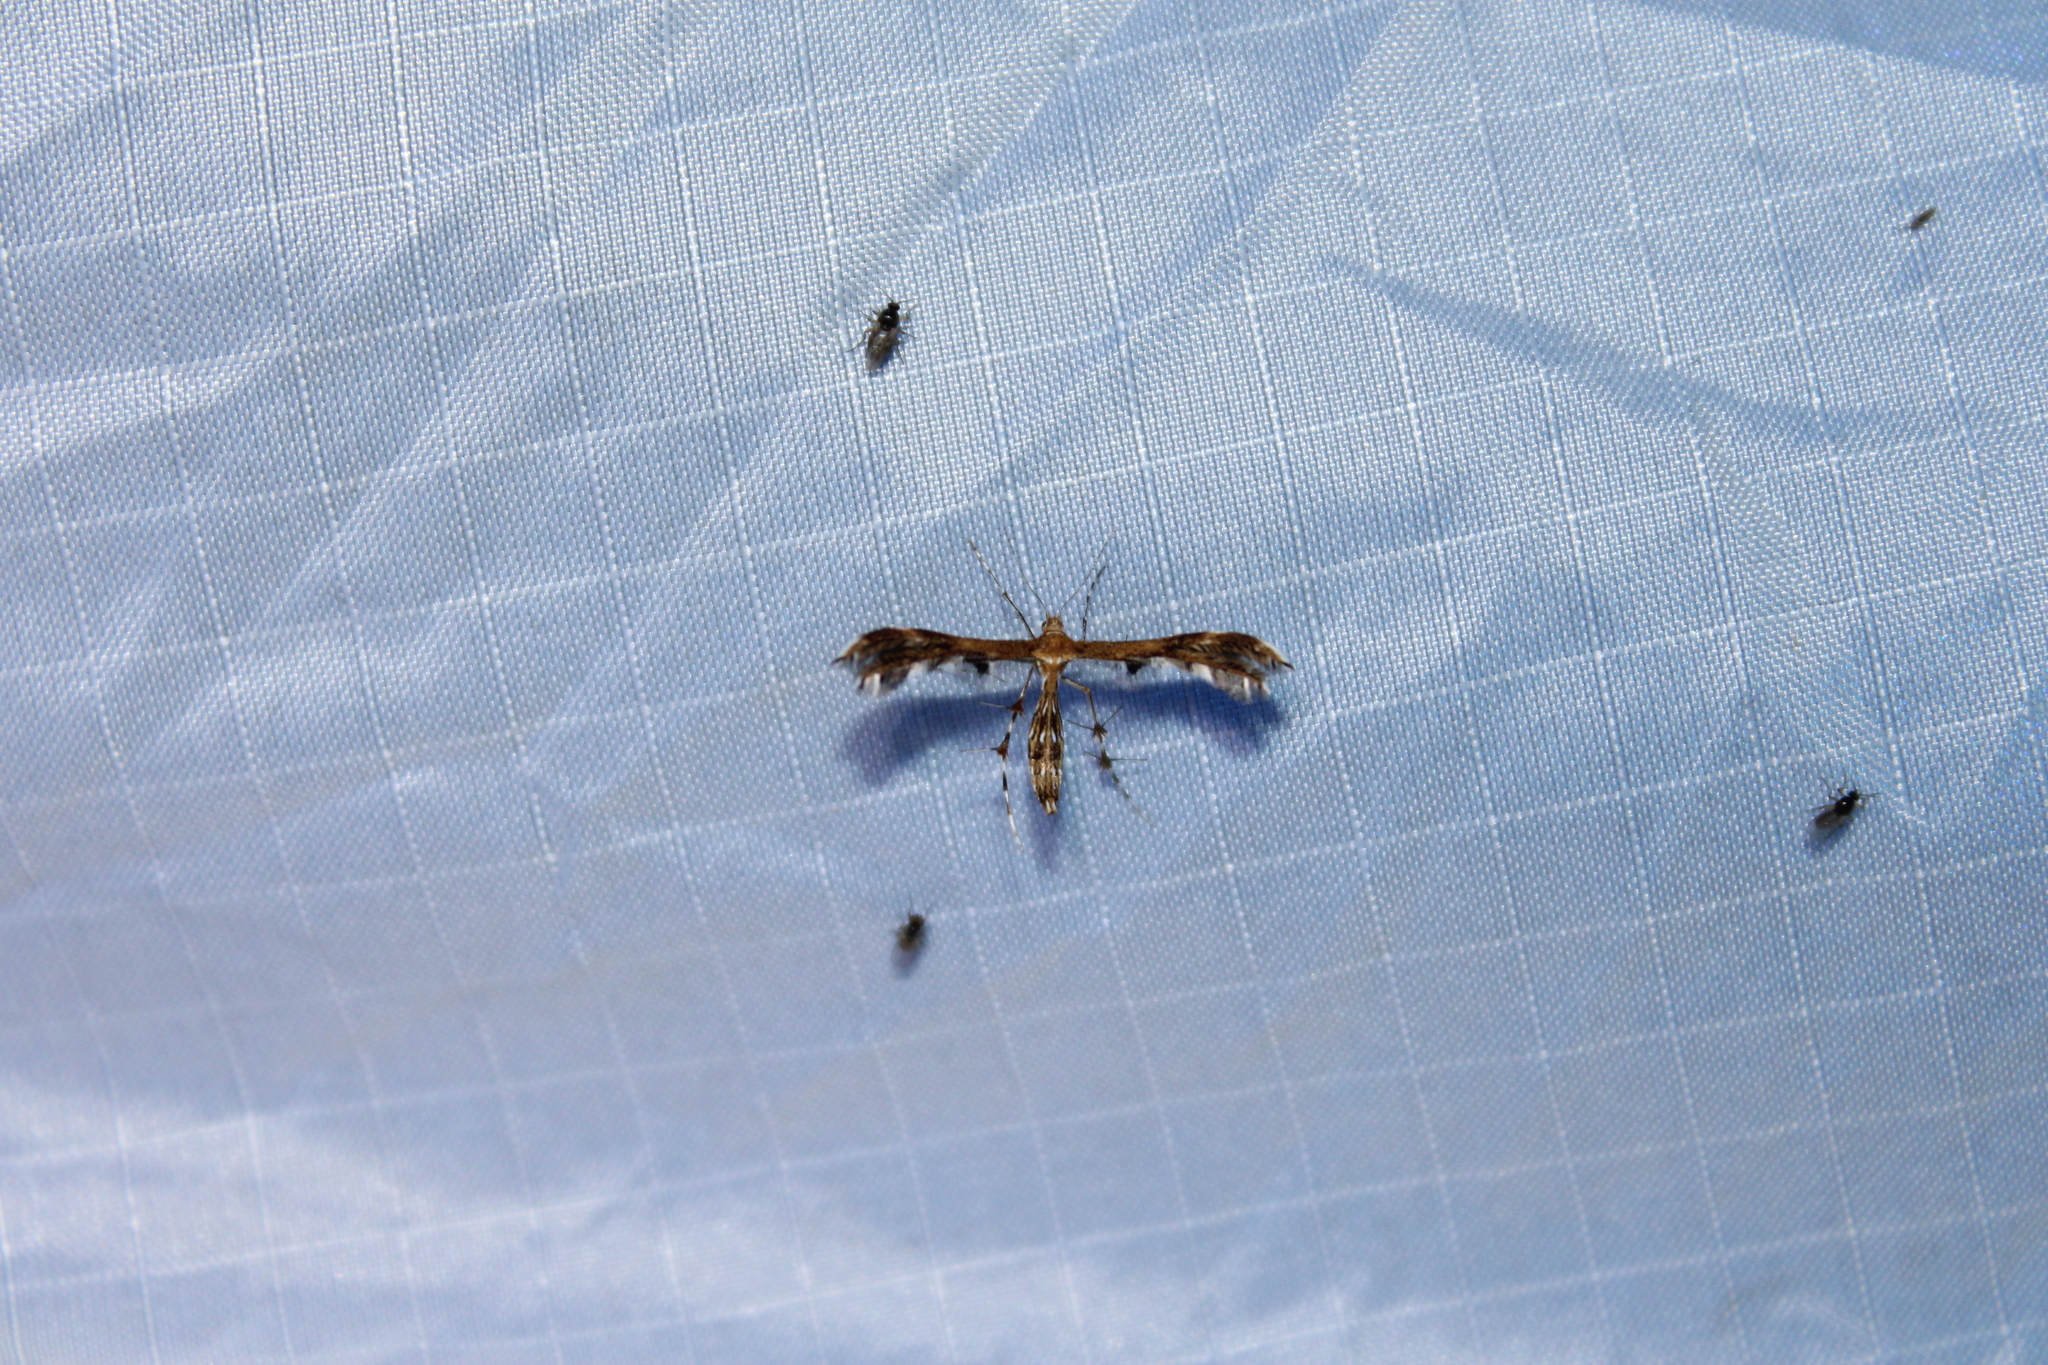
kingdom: Animalia
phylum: Arthropoda
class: Insecta
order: Lepidoptera
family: Pterophoridae
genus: Dejongia
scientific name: Dejongia lobidactylus
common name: Lobed plume moth
